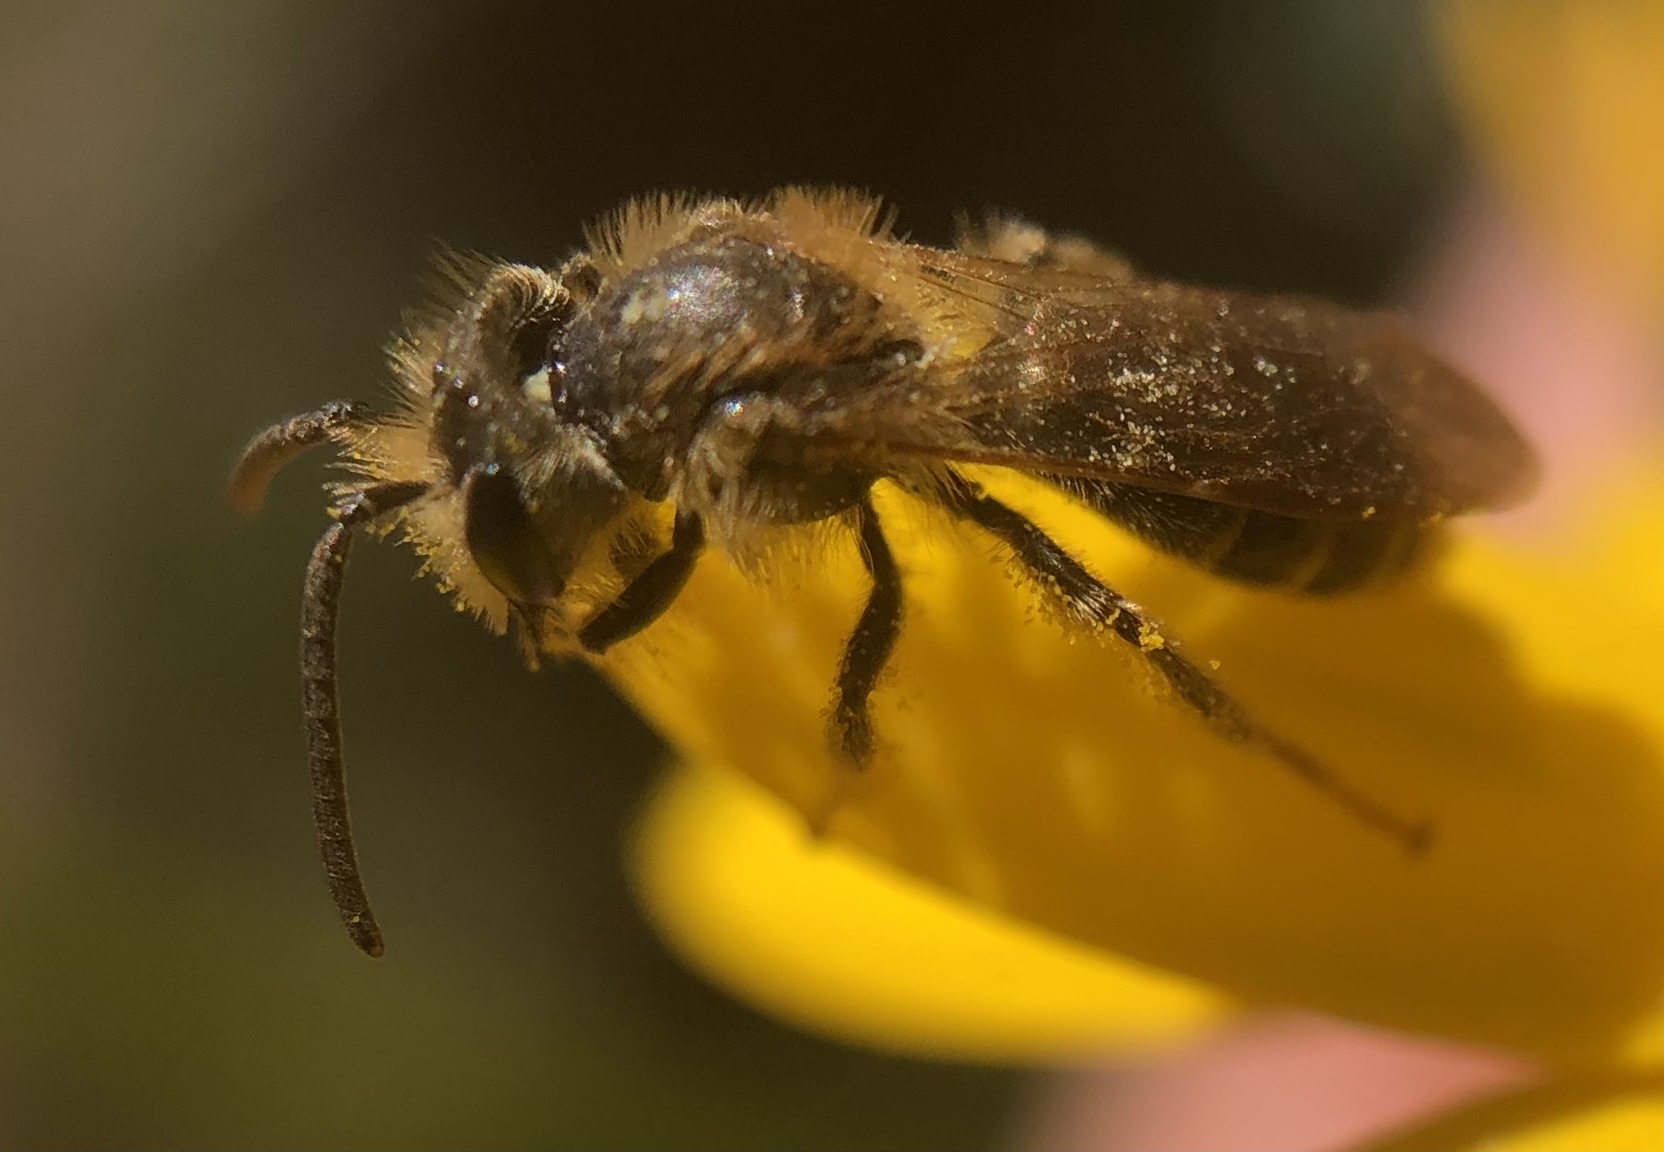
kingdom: Animalia
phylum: Arthropoda
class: Insecta
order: Hymenoptera
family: Andrenidae
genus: Andrena
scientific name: Andrena miserabilis
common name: Miserable mining bee
